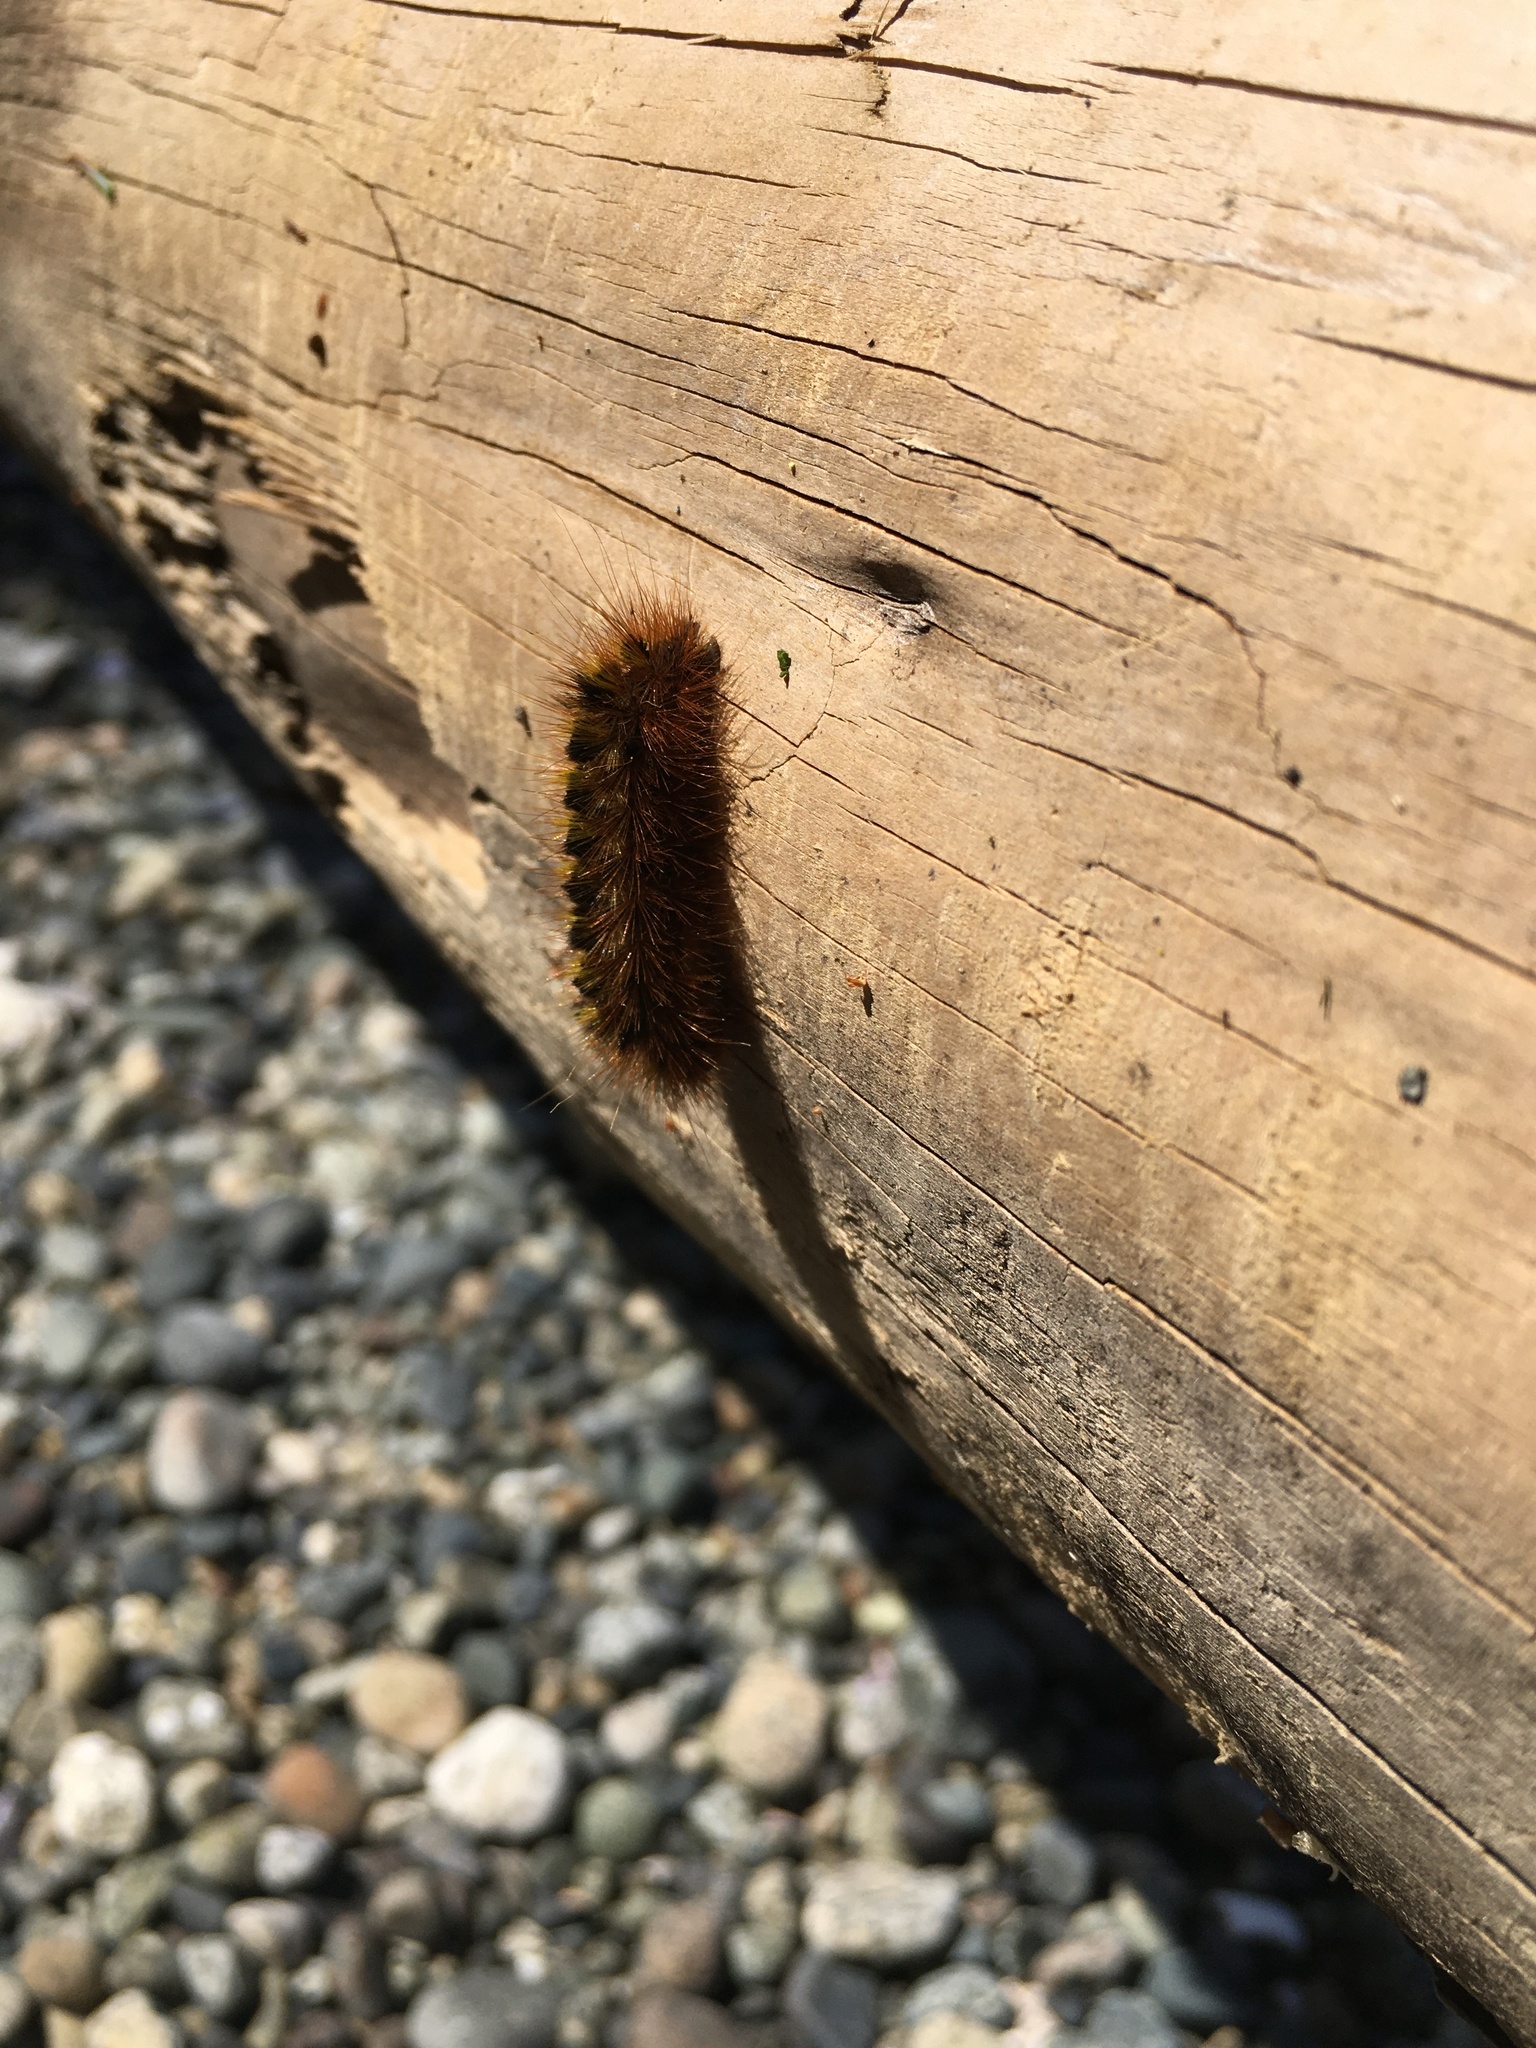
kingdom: Animalia
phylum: Arthropoda
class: Insecta
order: Lepidoptera
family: Erebidae
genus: Lophocampa
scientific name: Lophocampa argentata
